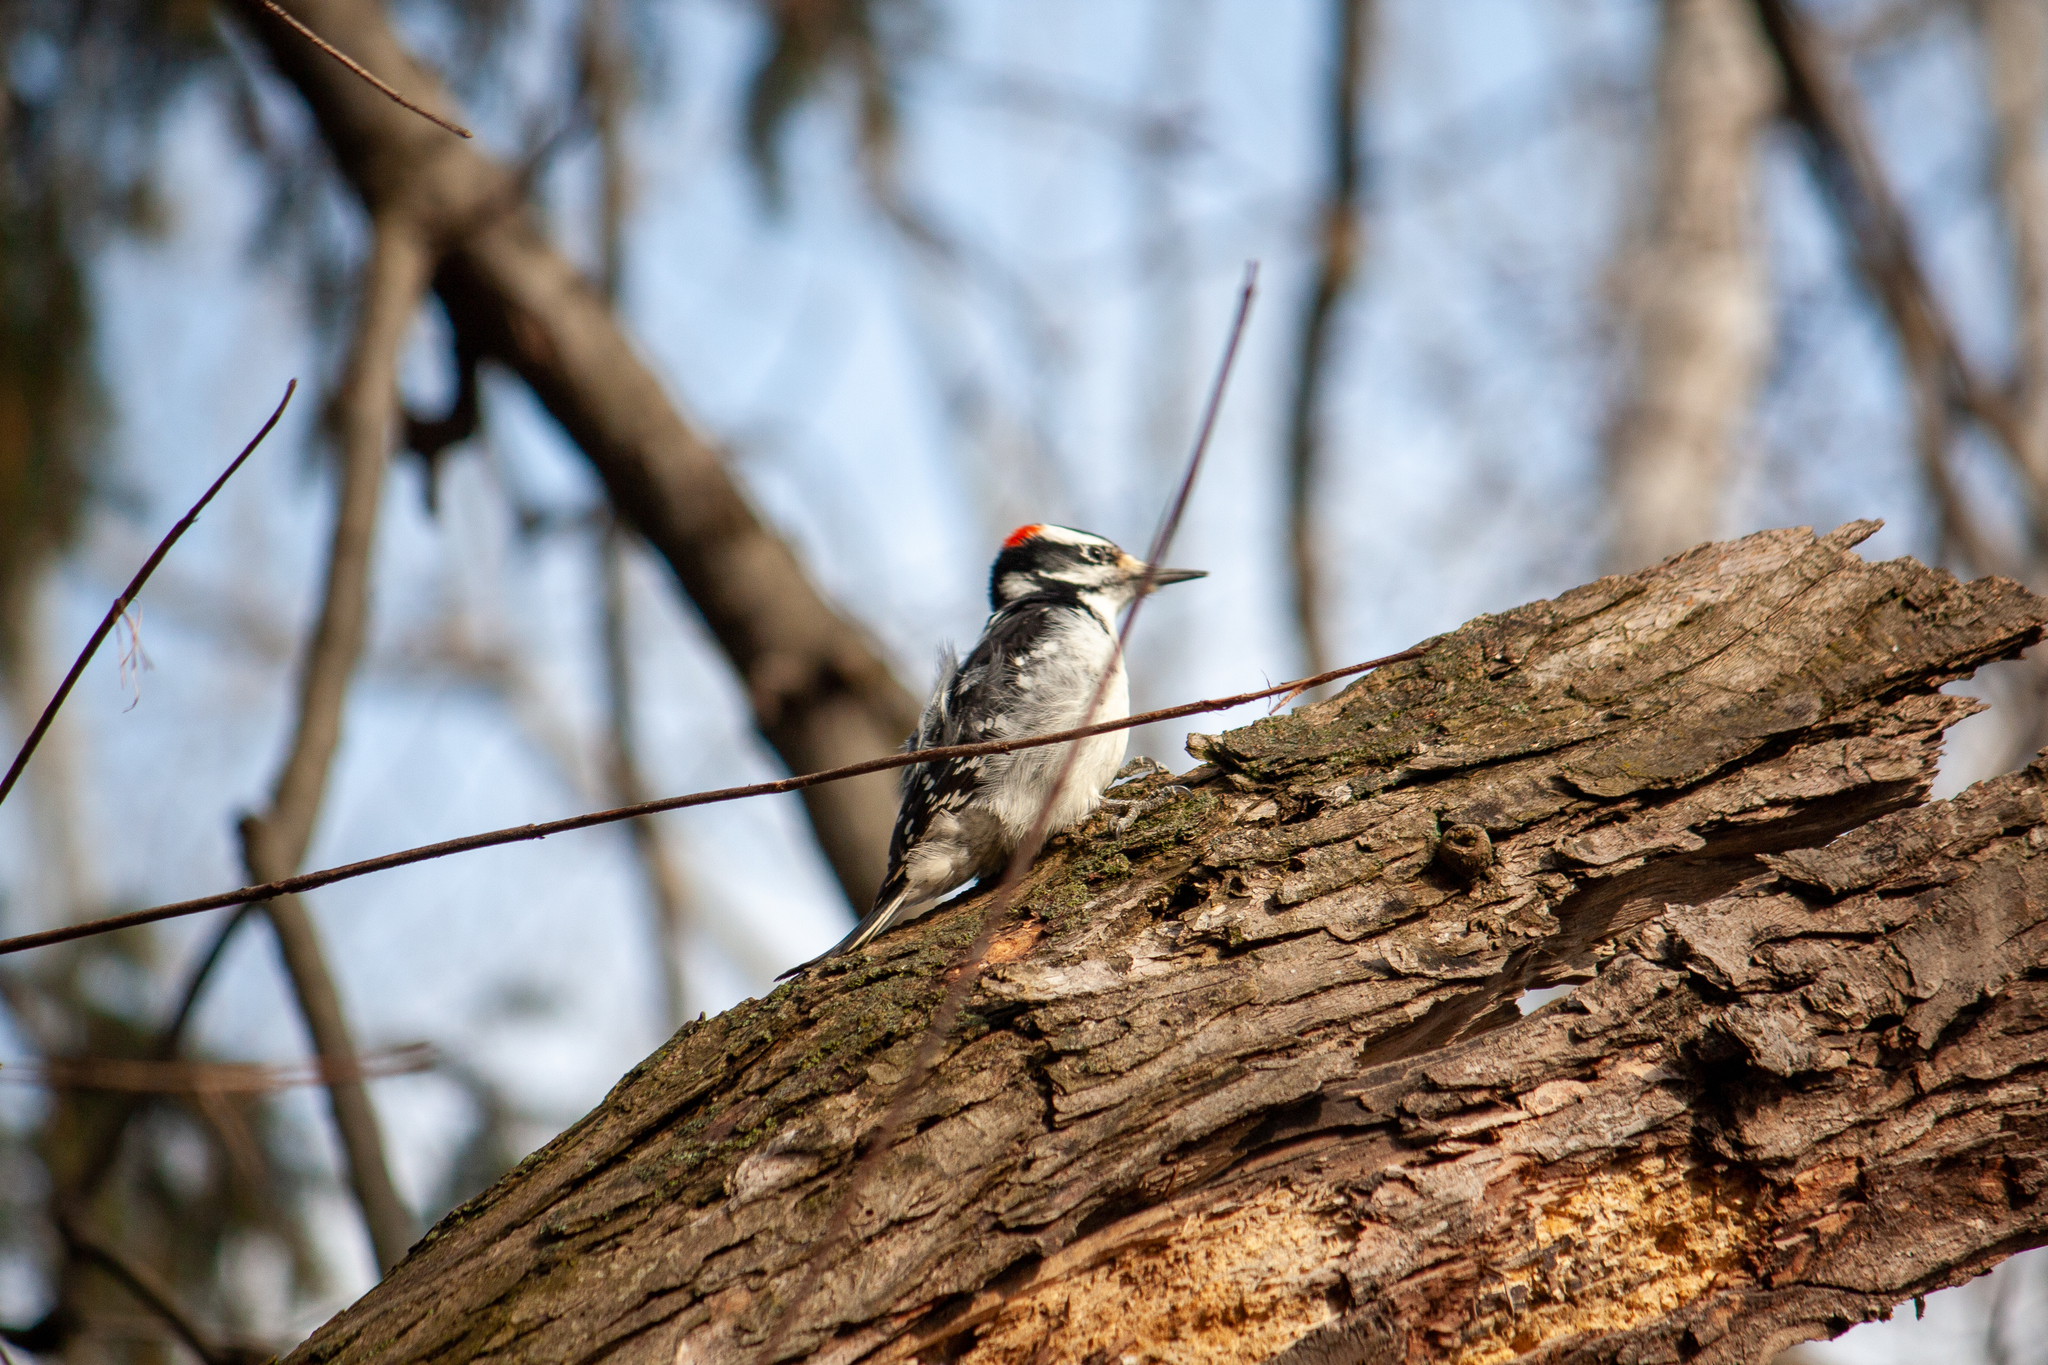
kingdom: Animalia
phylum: Chordata
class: Aves
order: Piciformes
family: Picidae
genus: Leuconotopicus
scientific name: Leuconotopicus villosus
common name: Hairy woodpecker
